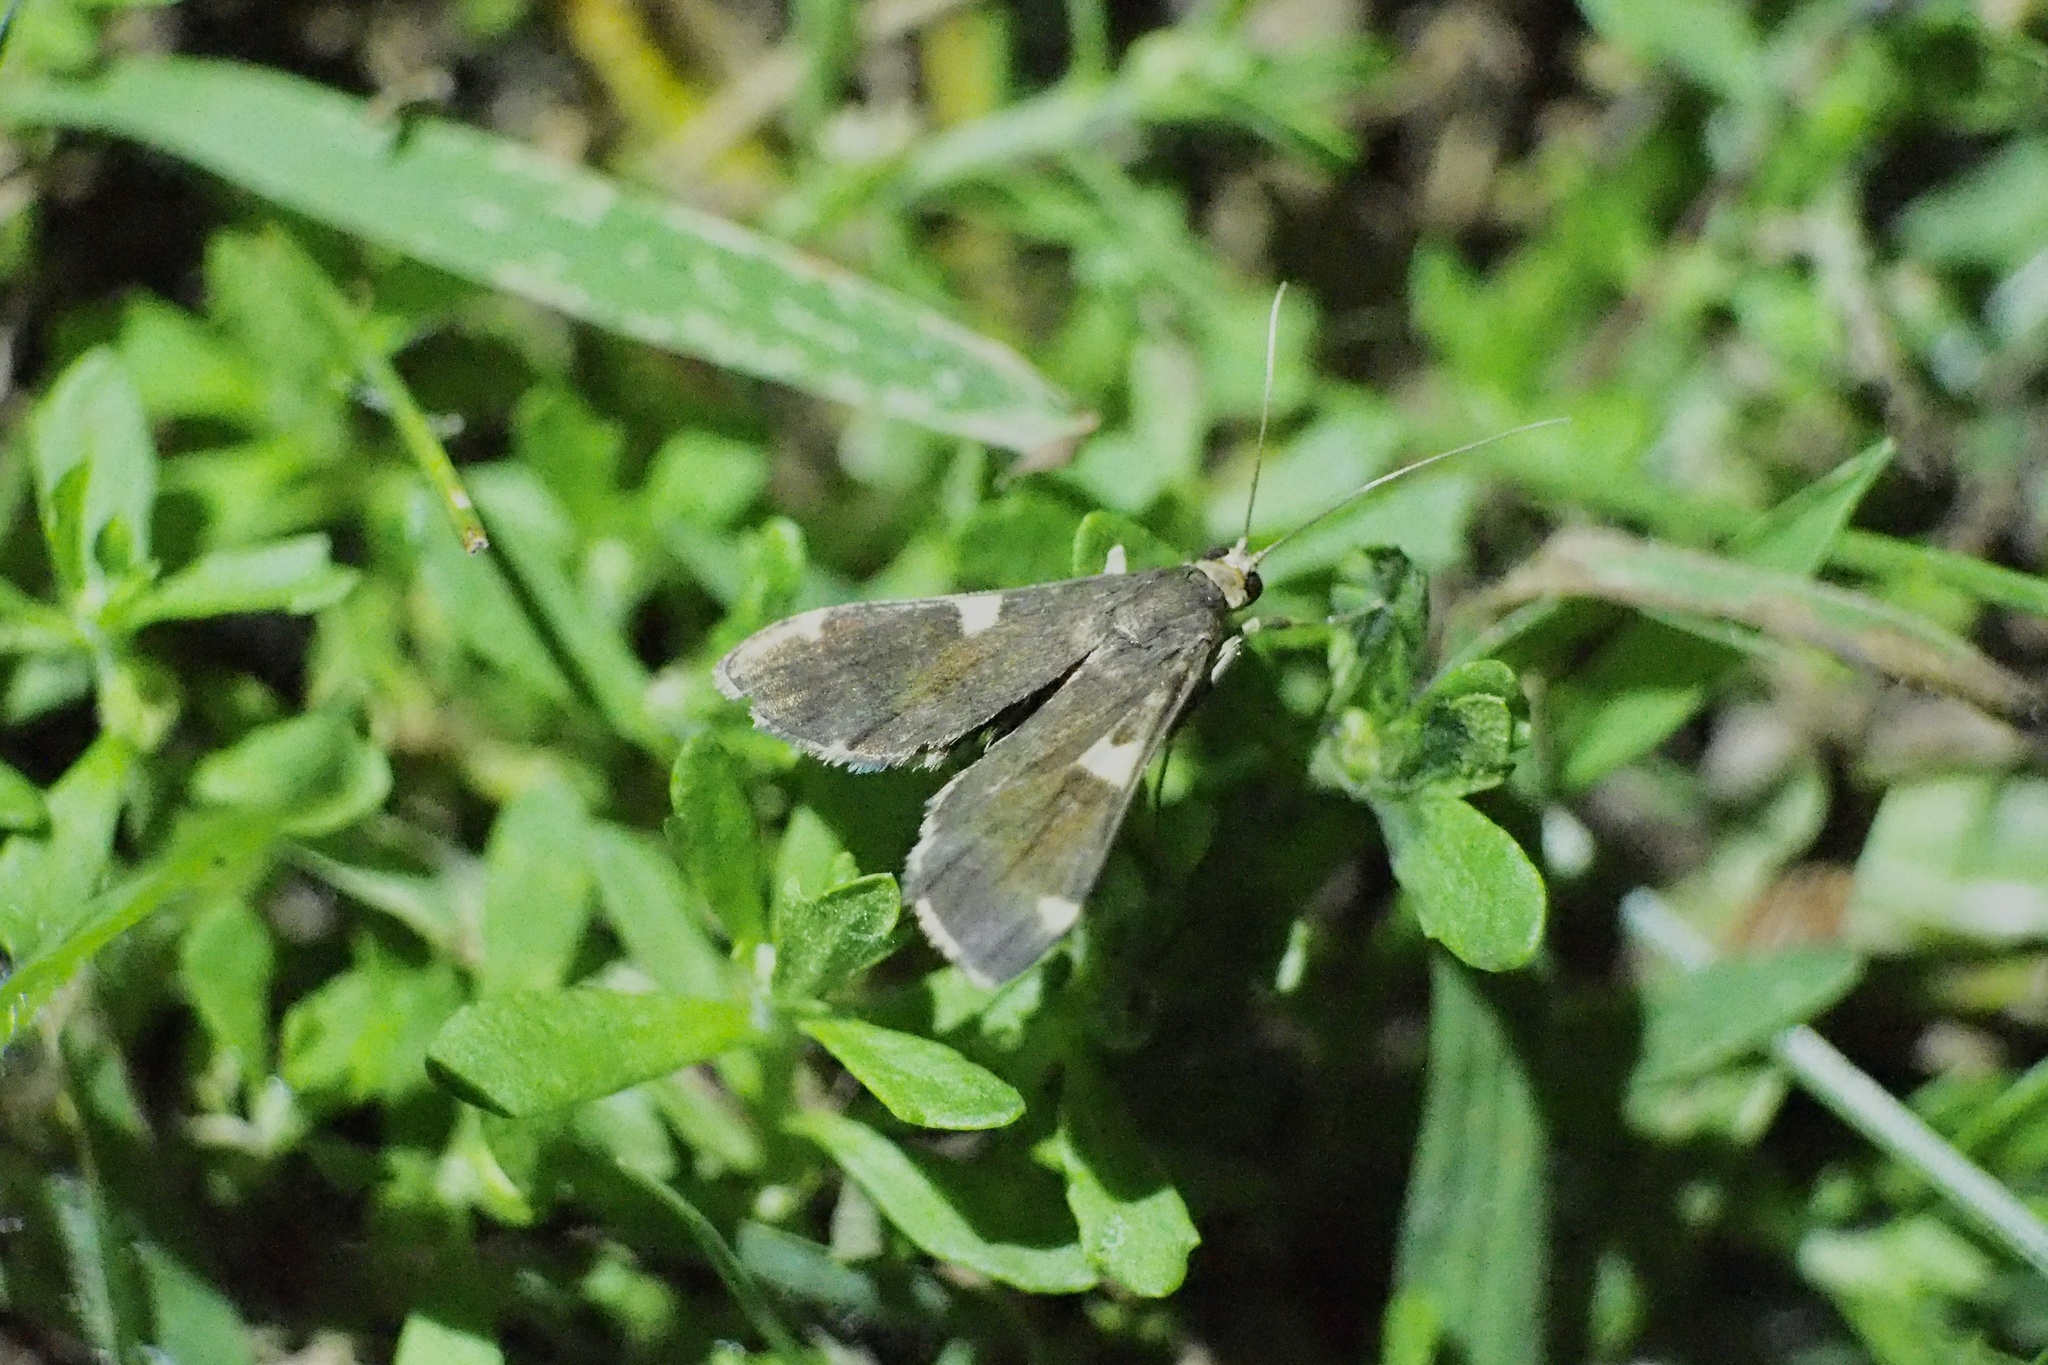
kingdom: Animalia
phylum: Arthropoda
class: Insecta
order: Lepidoptera
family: Crambidae
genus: Piletocera
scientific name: Piletocera aegimiusalis
